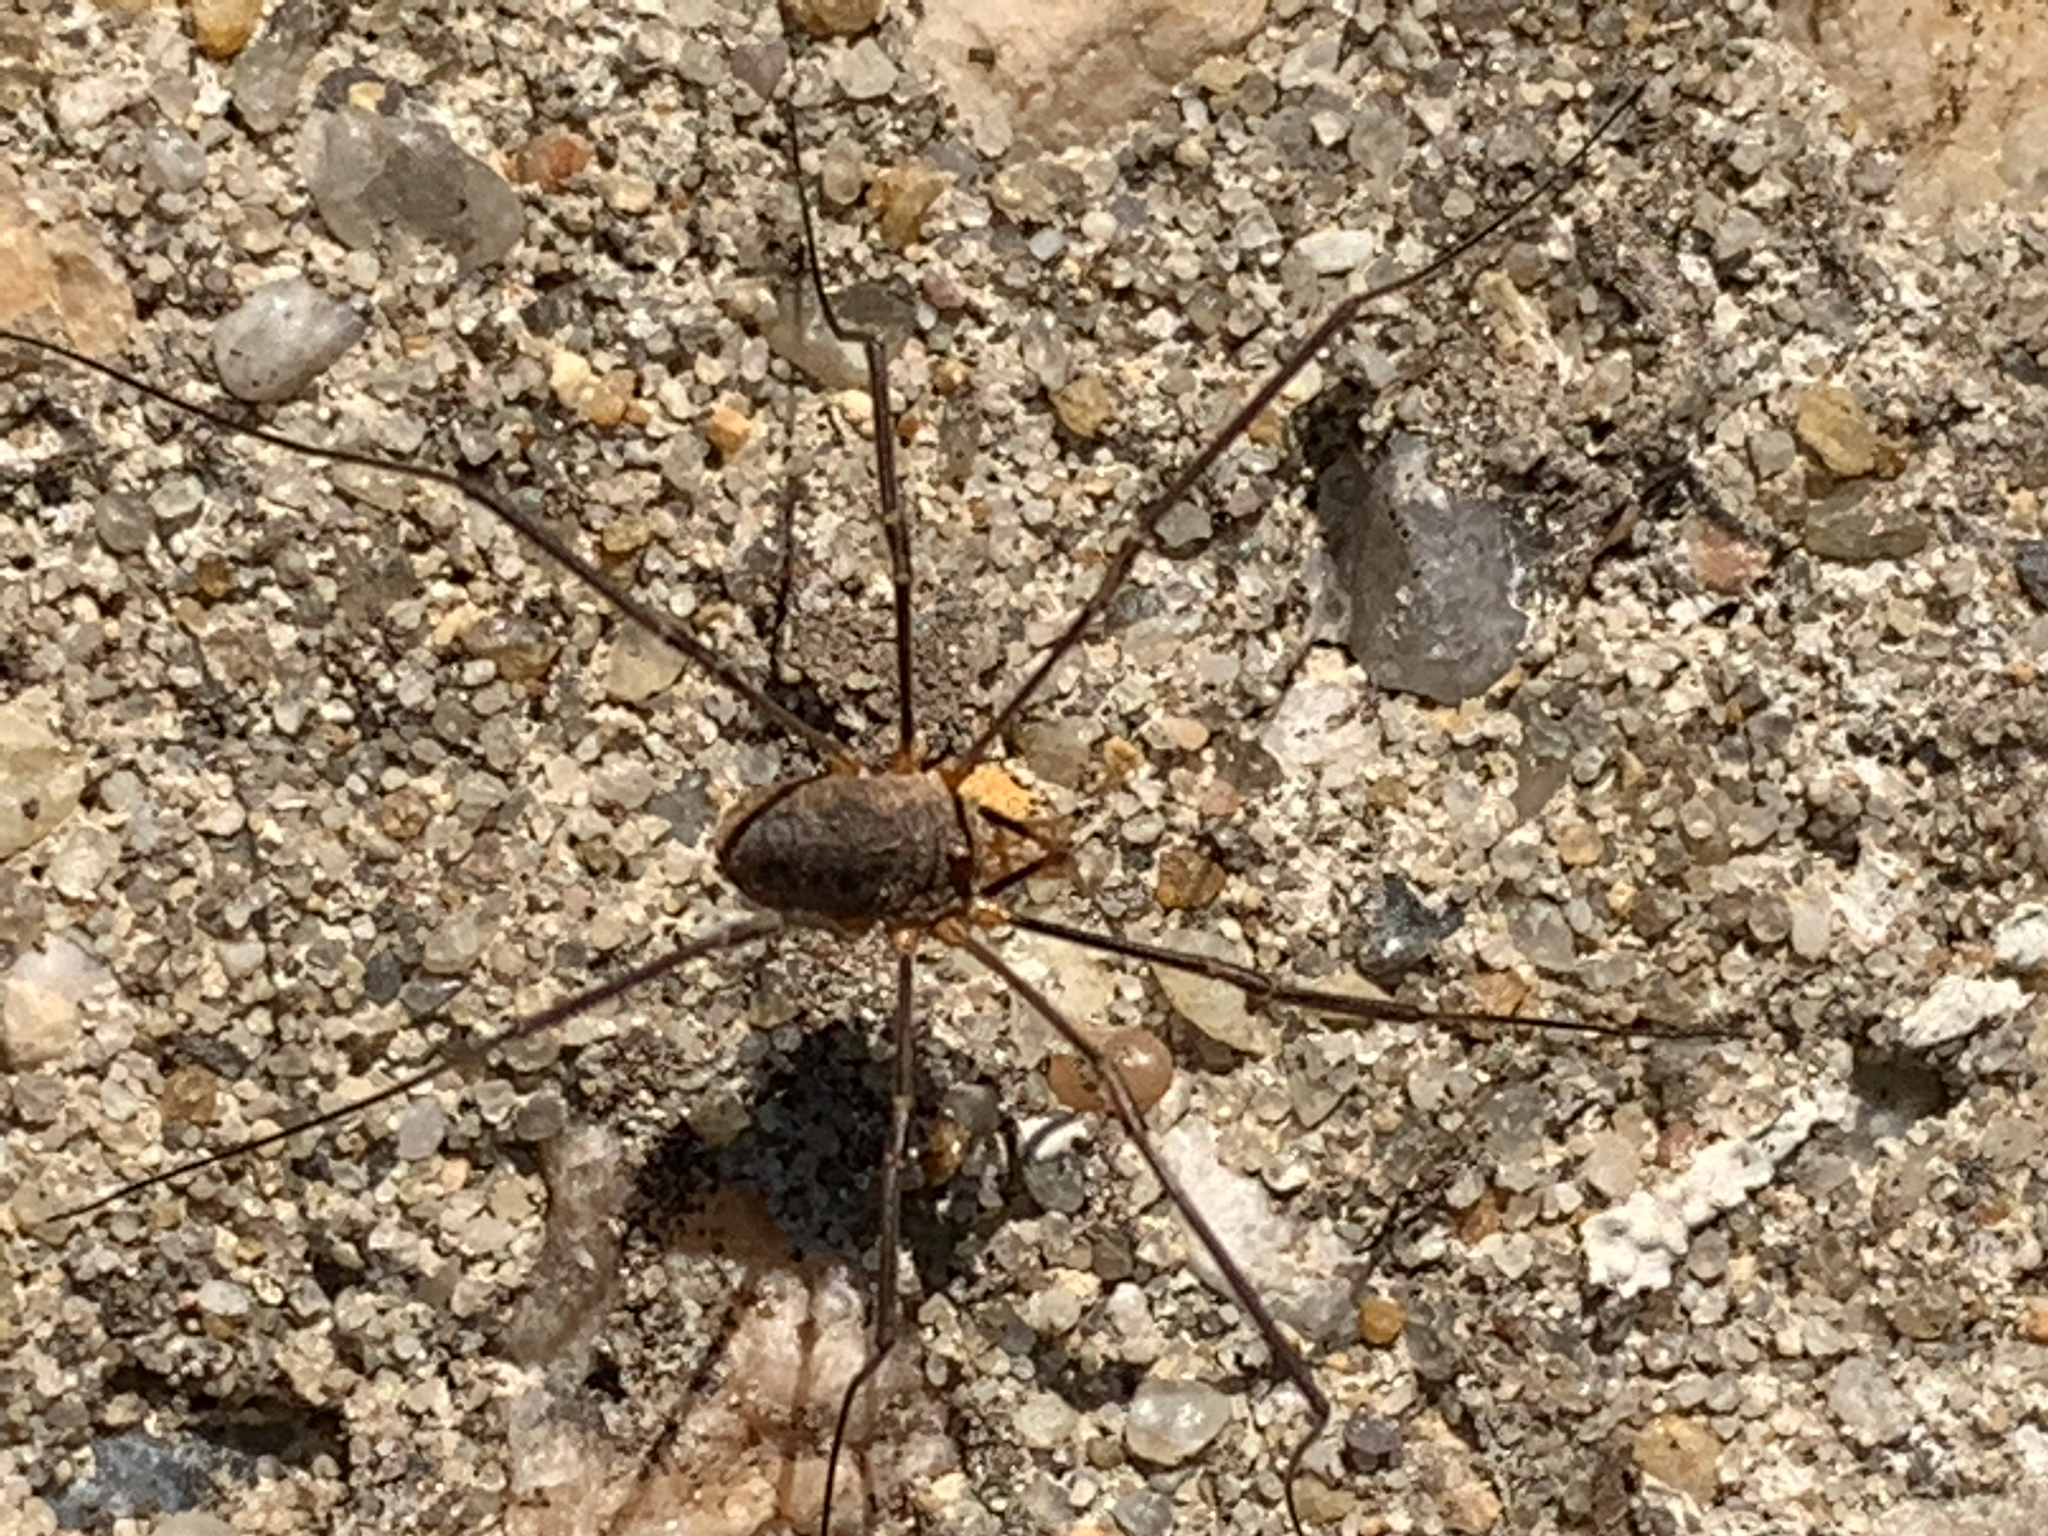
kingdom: Animalia
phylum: Arthropoda
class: Arachnida
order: Opiliones
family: Phalangiidae
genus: Phalangium
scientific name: Phalangium opilio
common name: Daddy longleg
